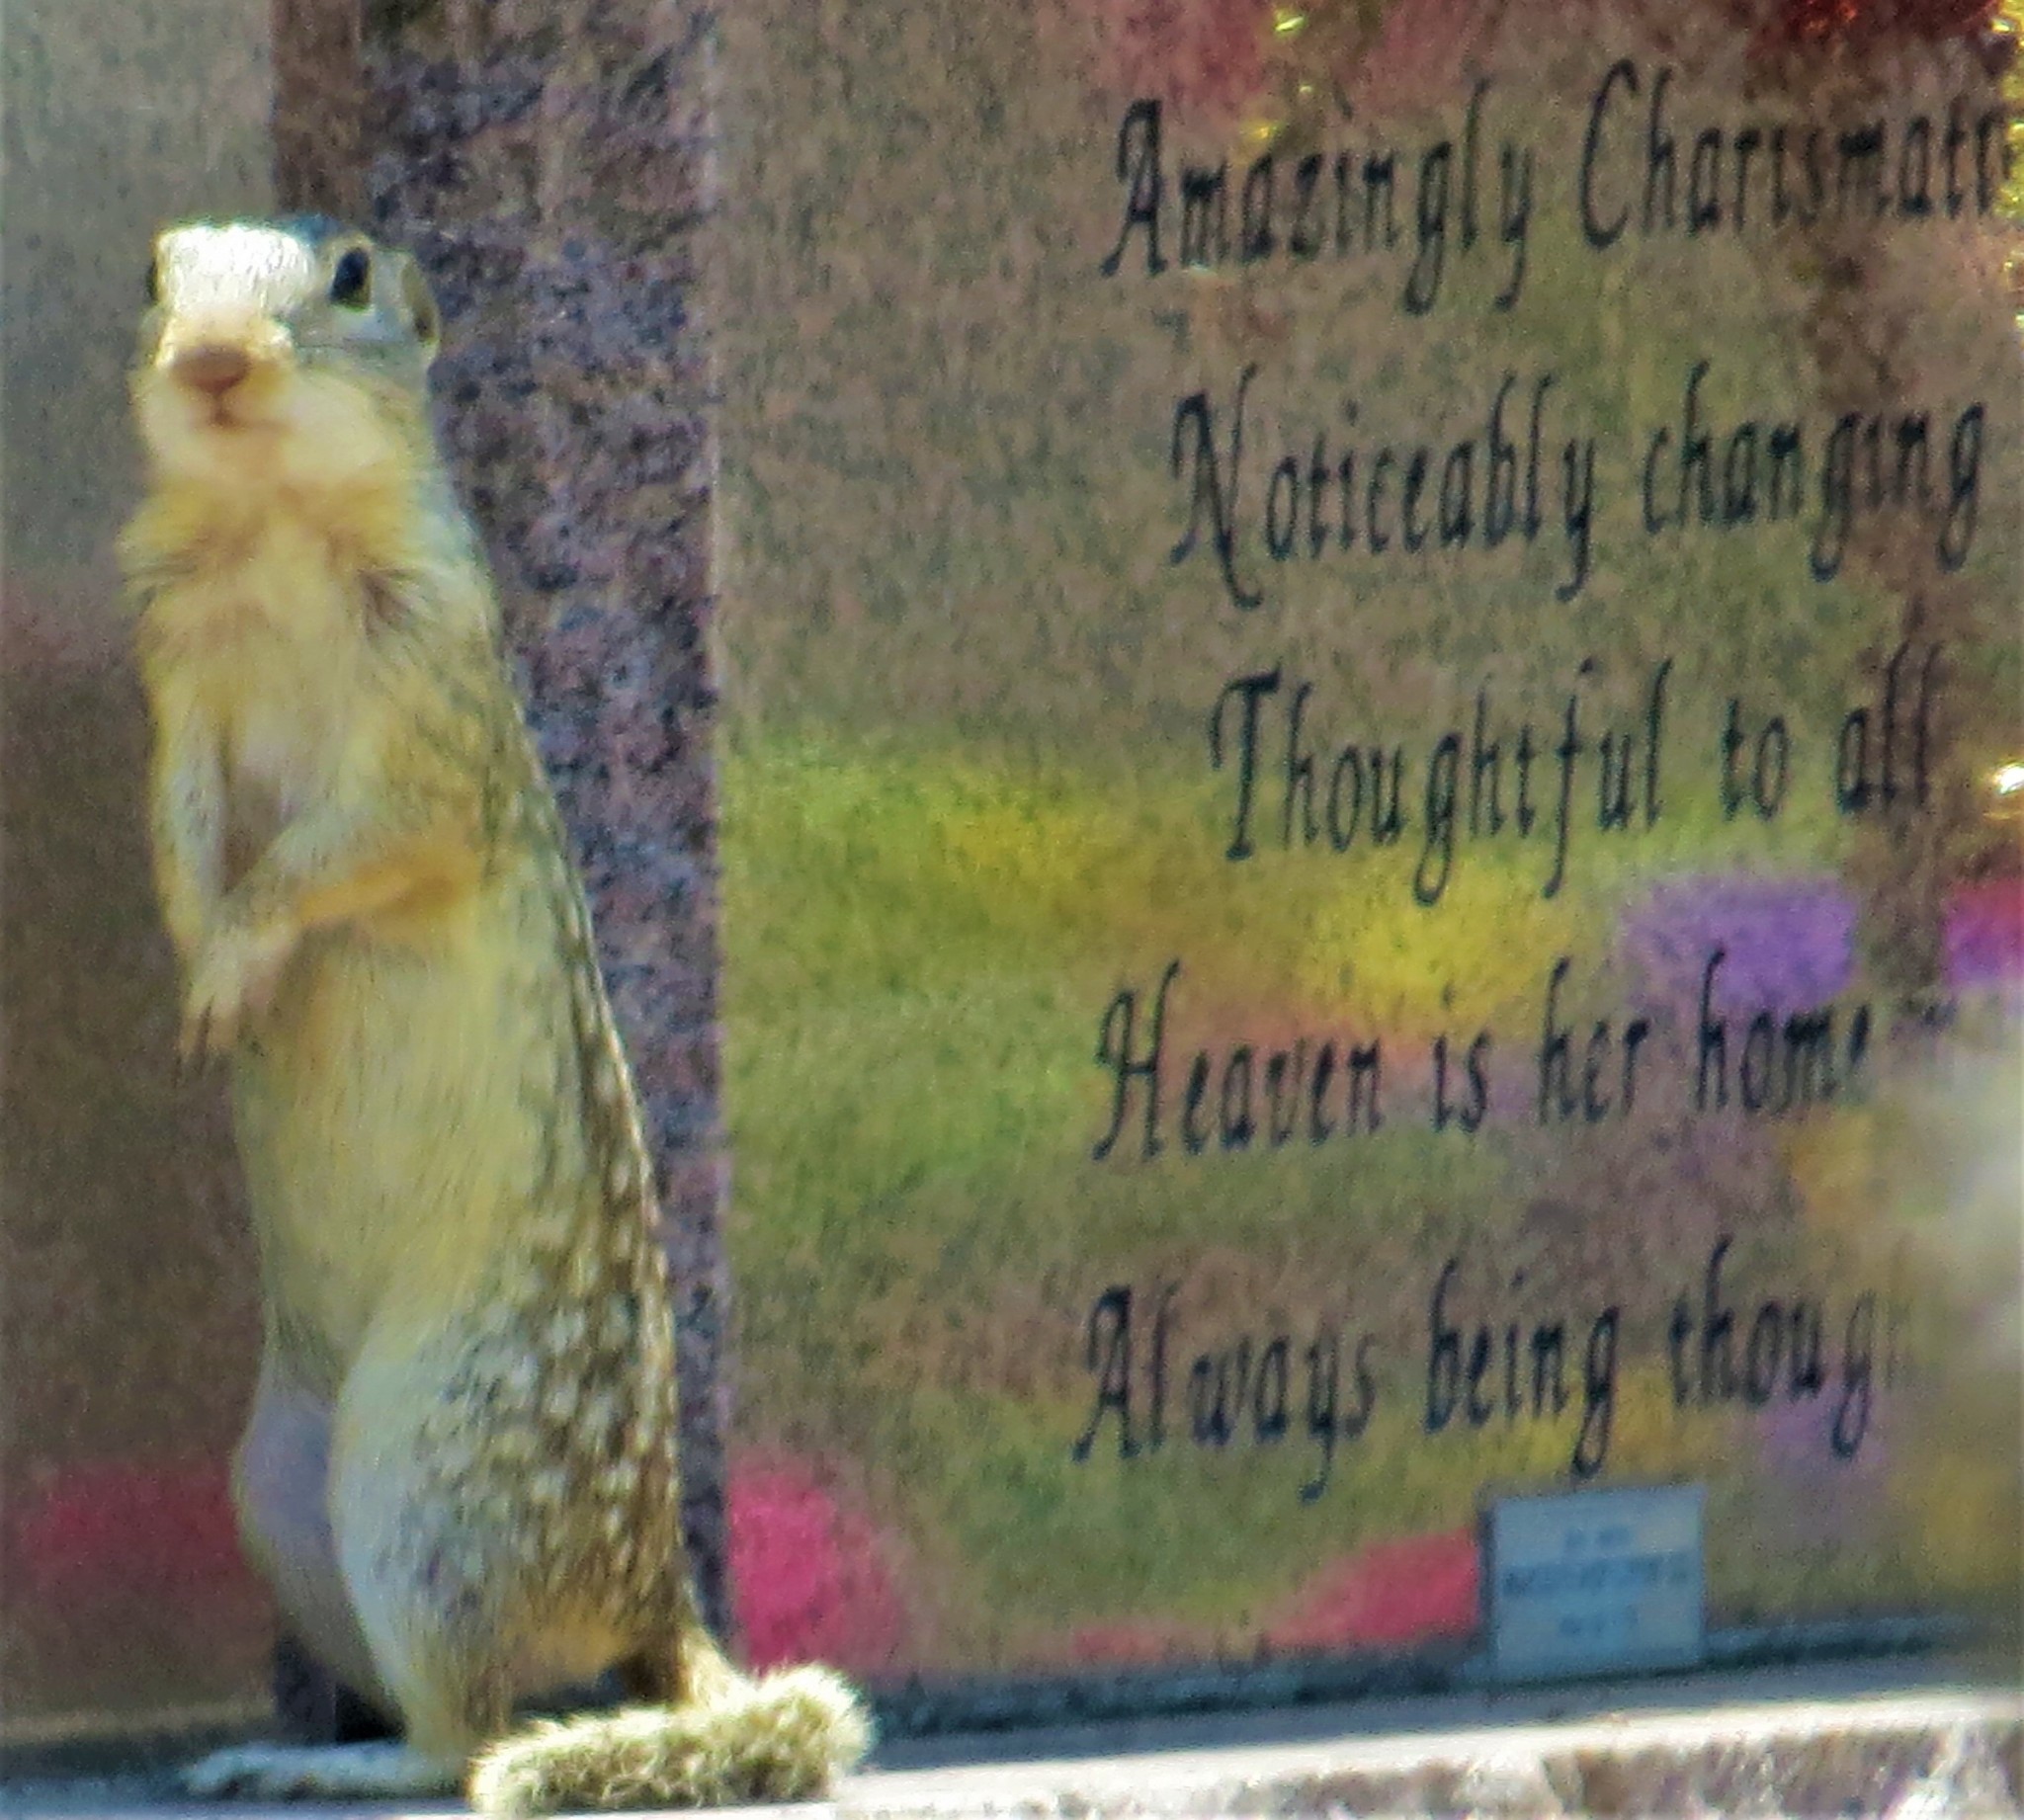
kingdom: Animalia
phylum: Chordata
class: Mammalia
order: Rodentia
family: Sciuridae
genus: Ictidomys
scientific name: Ictidomys parvidens
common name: Rio grande ground squirrel
